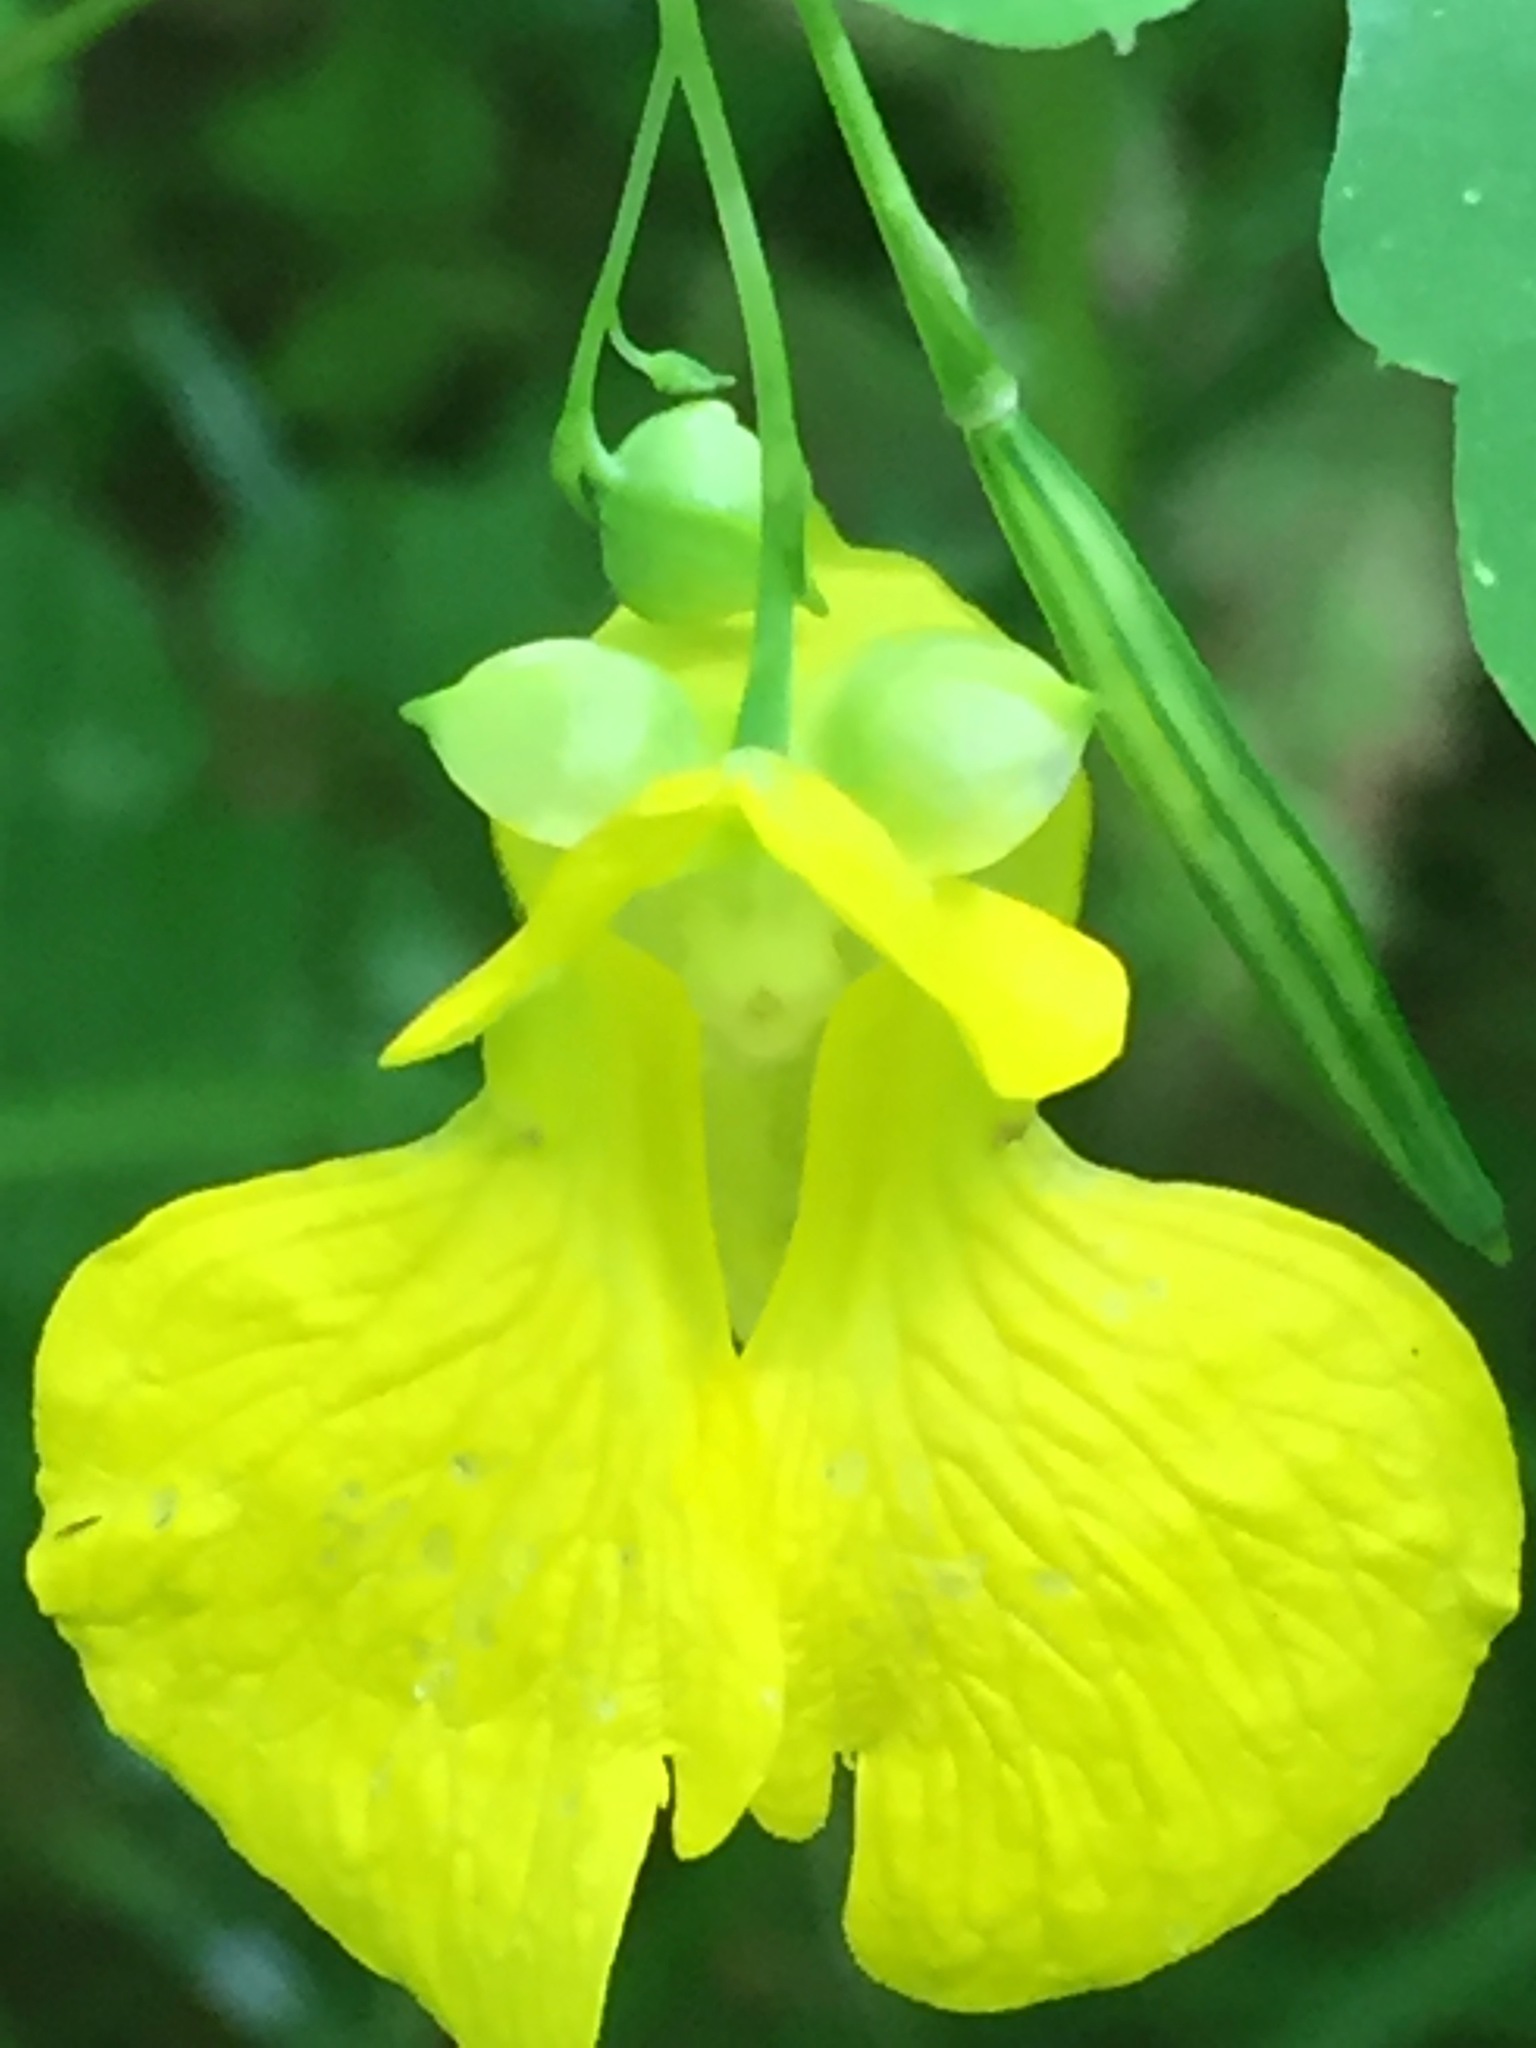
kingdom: Plantae
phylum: Tracheophyta
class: Magnoliopsida
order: Ericales
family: Balsaminaceae
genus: Impatiens
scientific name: Impatiens pallida
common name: Pale snapweed
